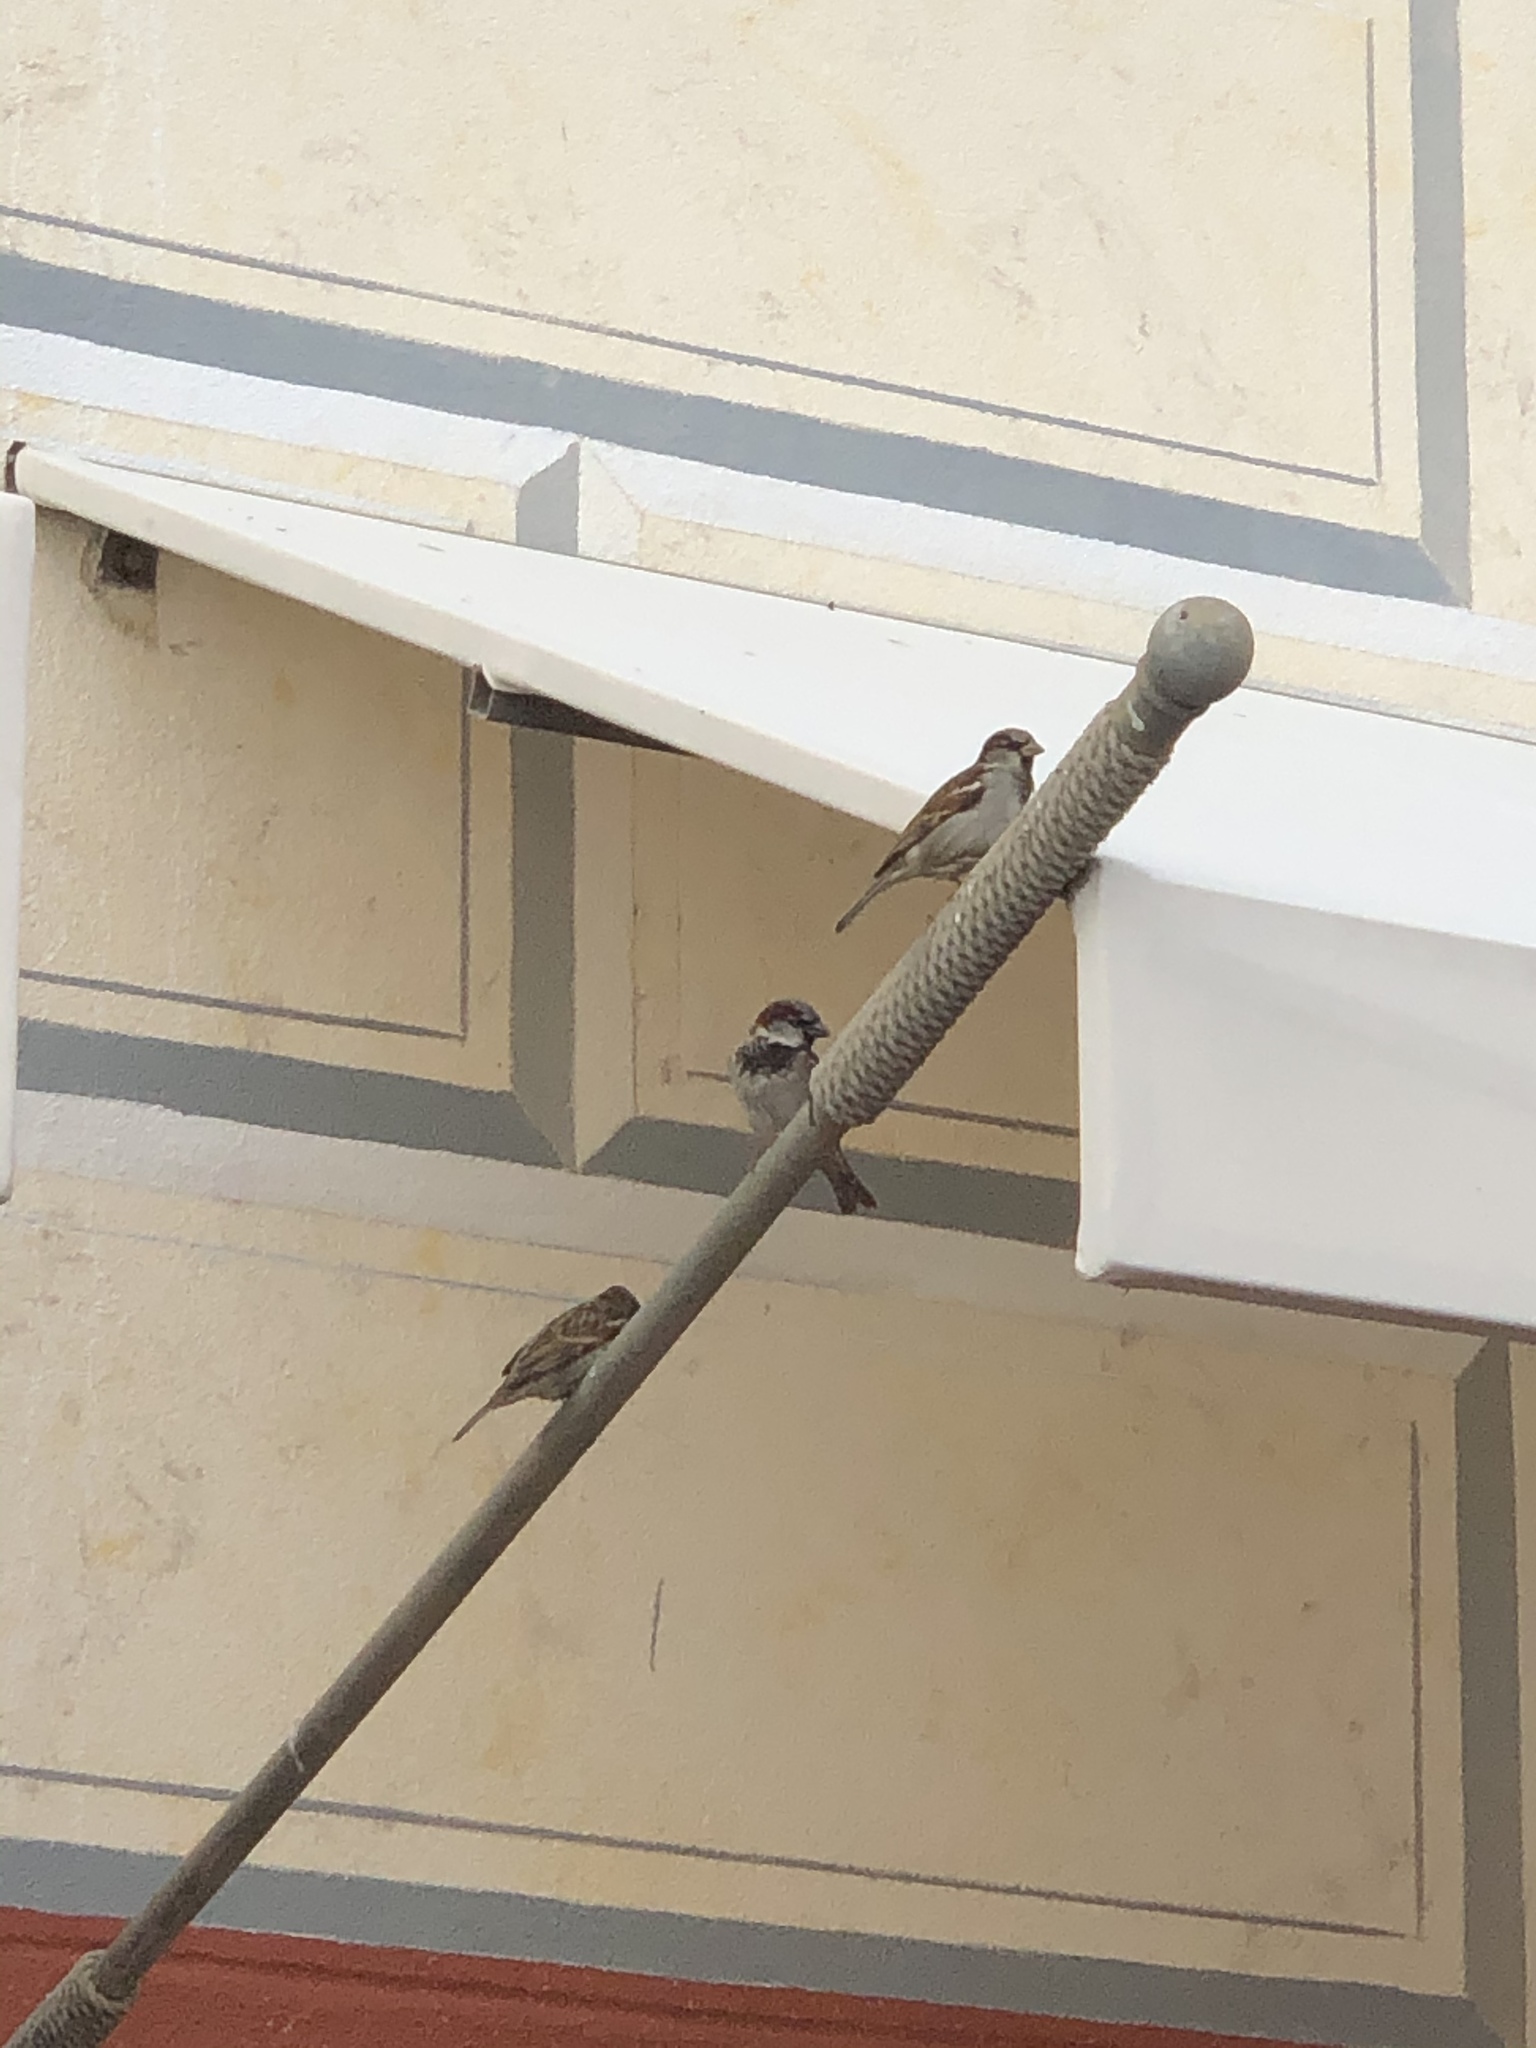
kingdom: Animalia
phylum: Chordata
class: Aves
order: Passeriformes
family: Passeridae
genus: Passer
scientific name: Passer domesticus
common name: House sparrow
